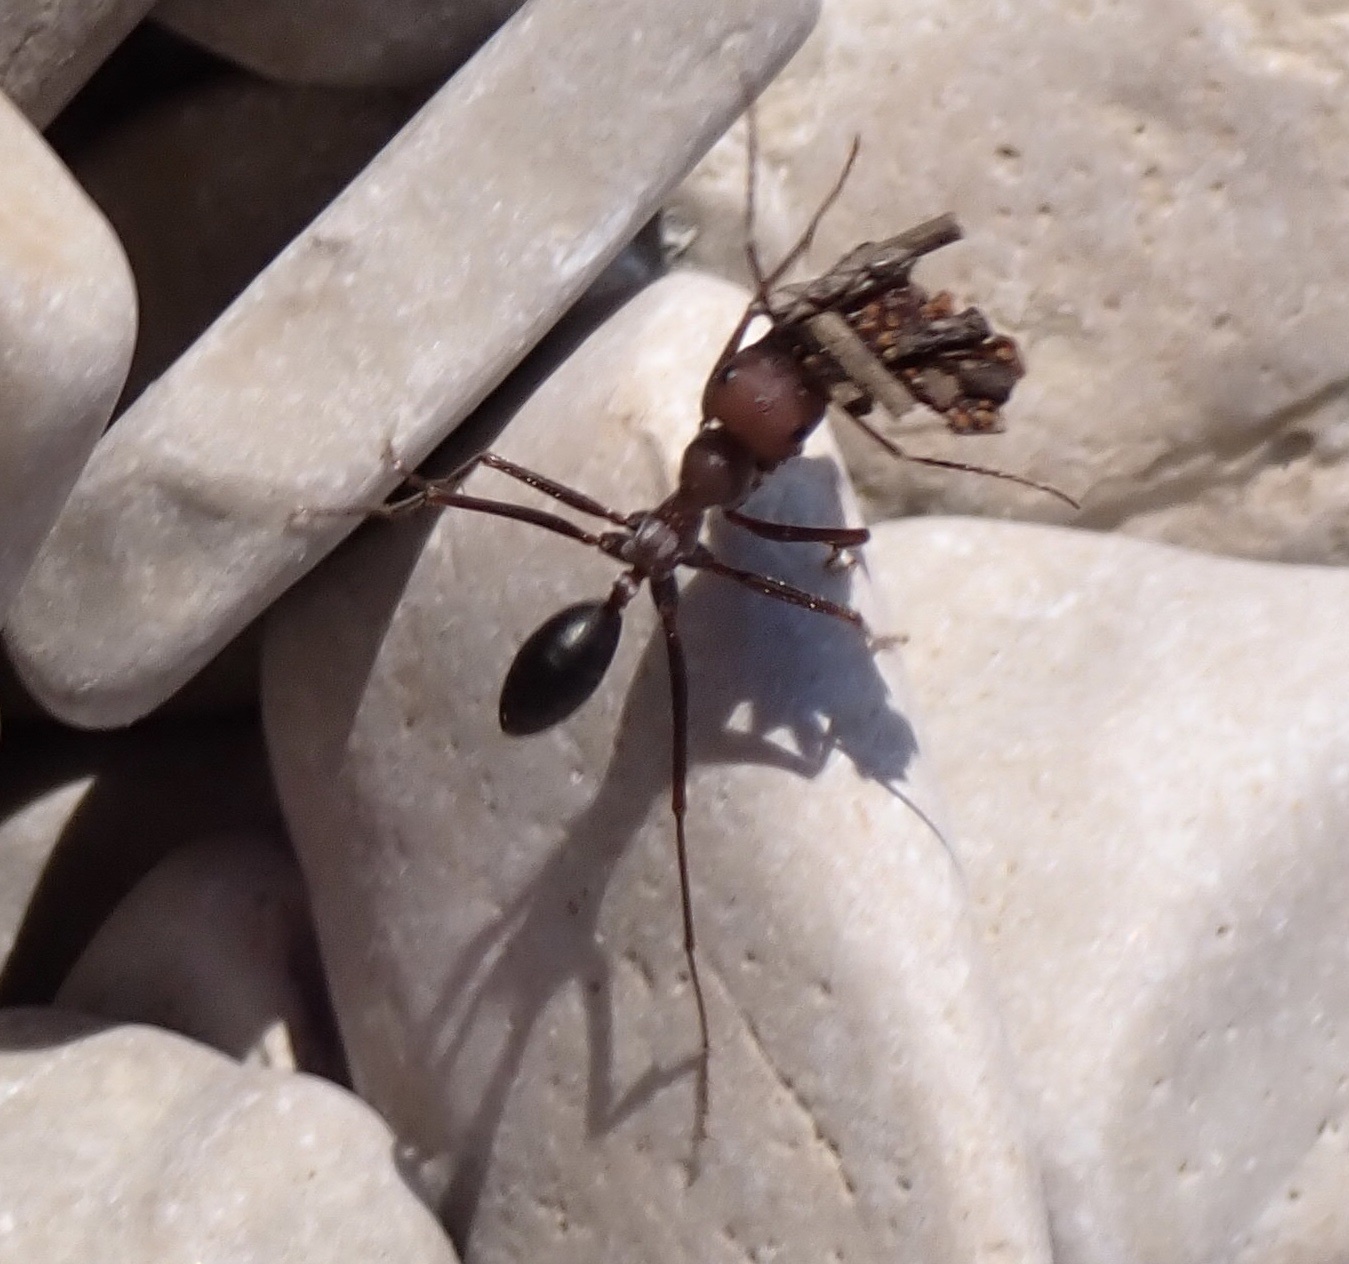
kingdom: Animalia
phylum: Arthropoda
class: Insecta
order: Hymenoptera
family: Formicidae
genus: Cataglyphis
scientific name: Cataglyphis nodus
